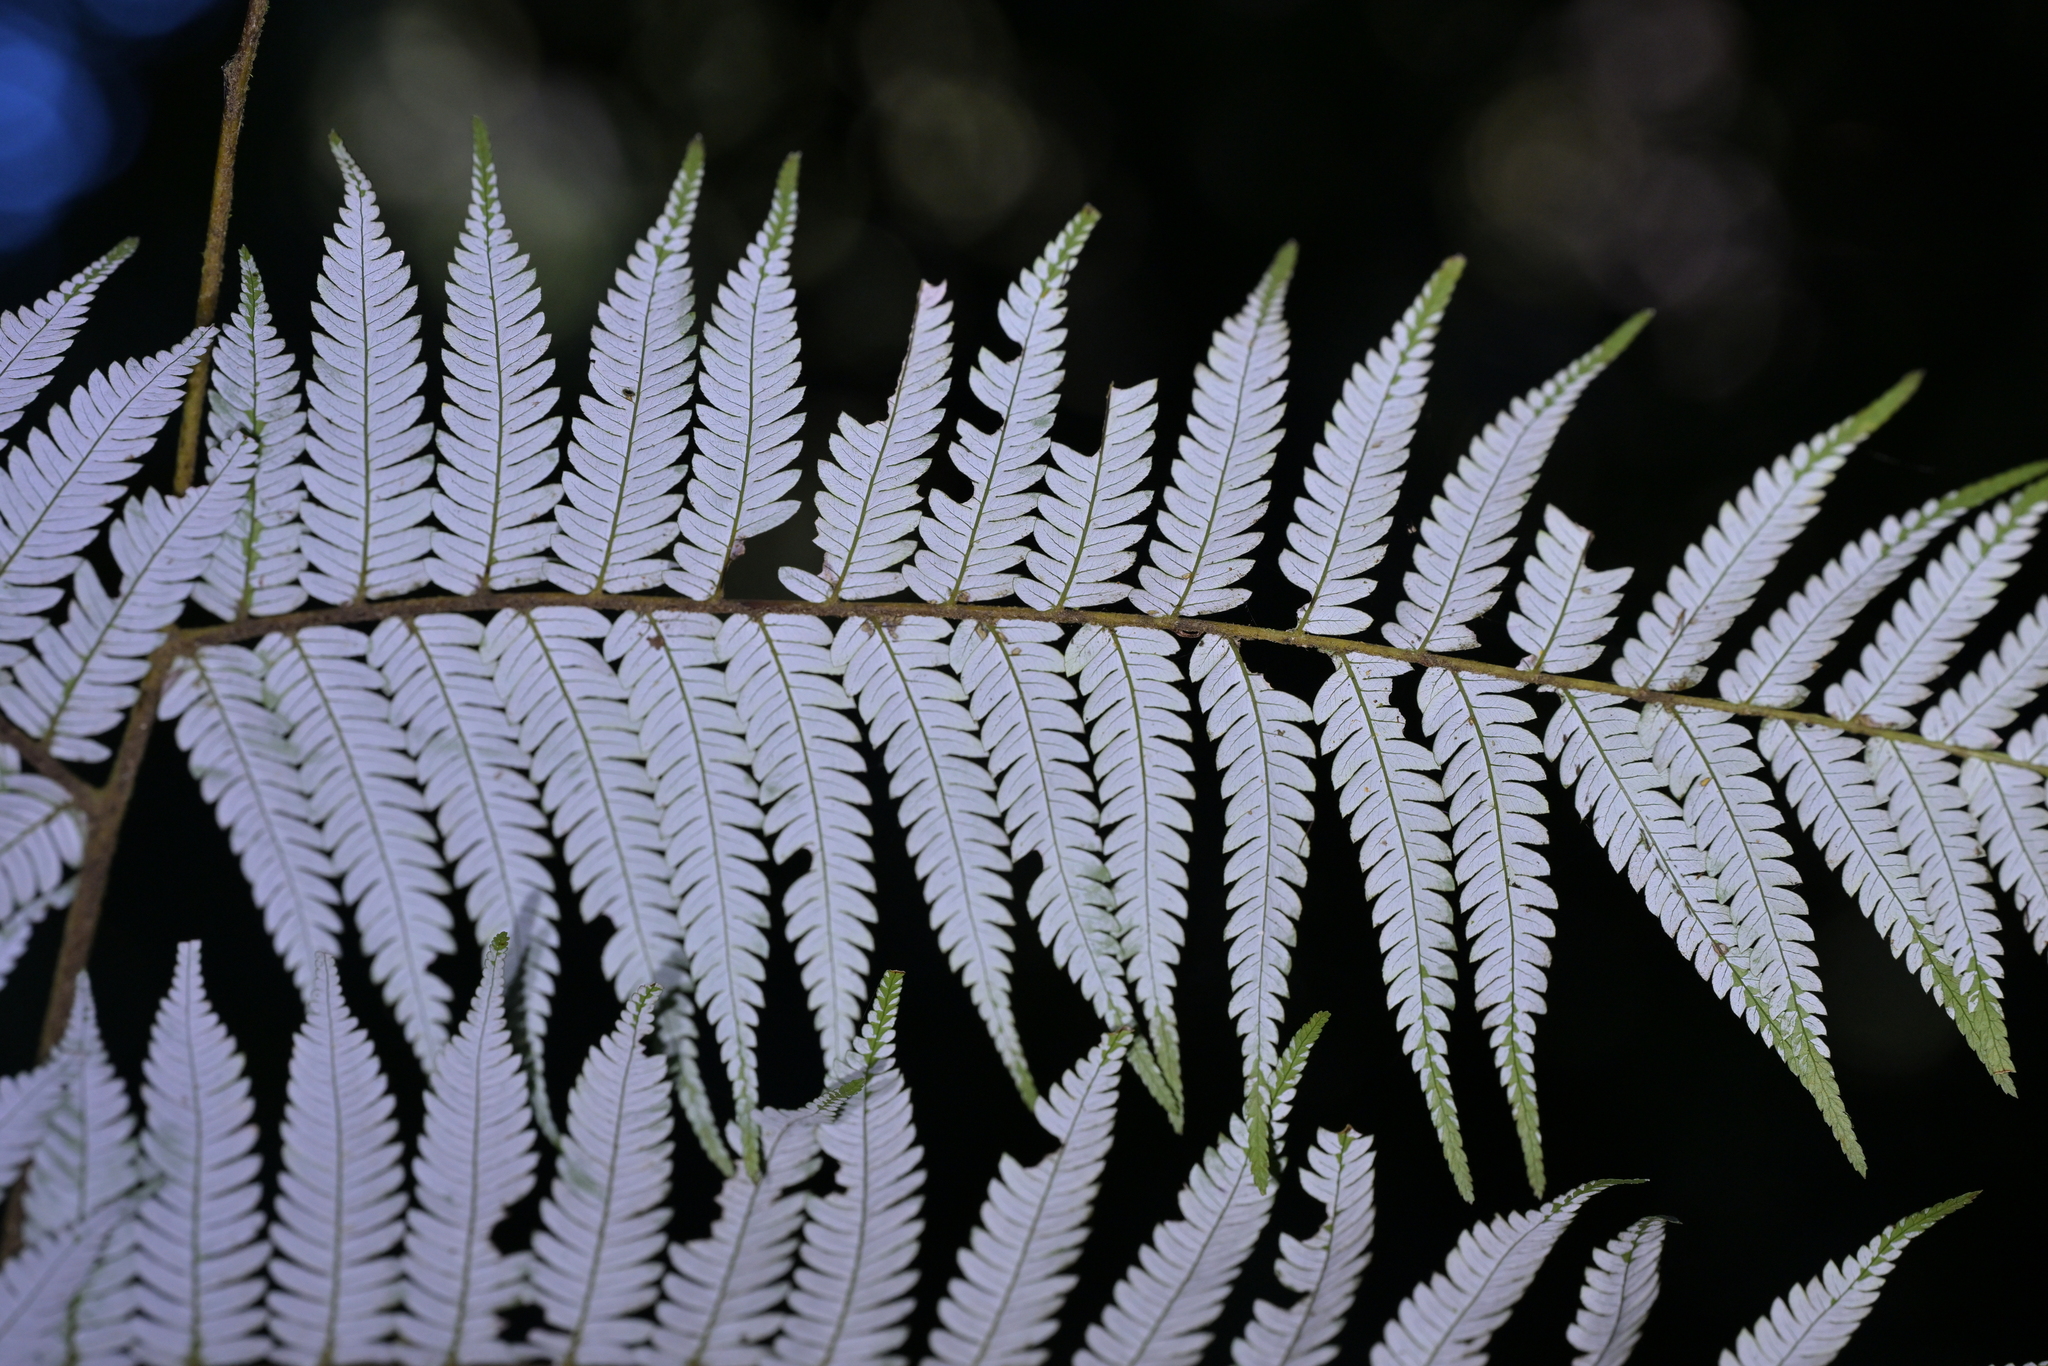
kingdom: Plantae
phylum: Tracheophyta
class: Polypodiopsida
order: Cyatheales
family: Cyatheaceae
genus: Alsophila
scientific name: Alsophila dealbata
